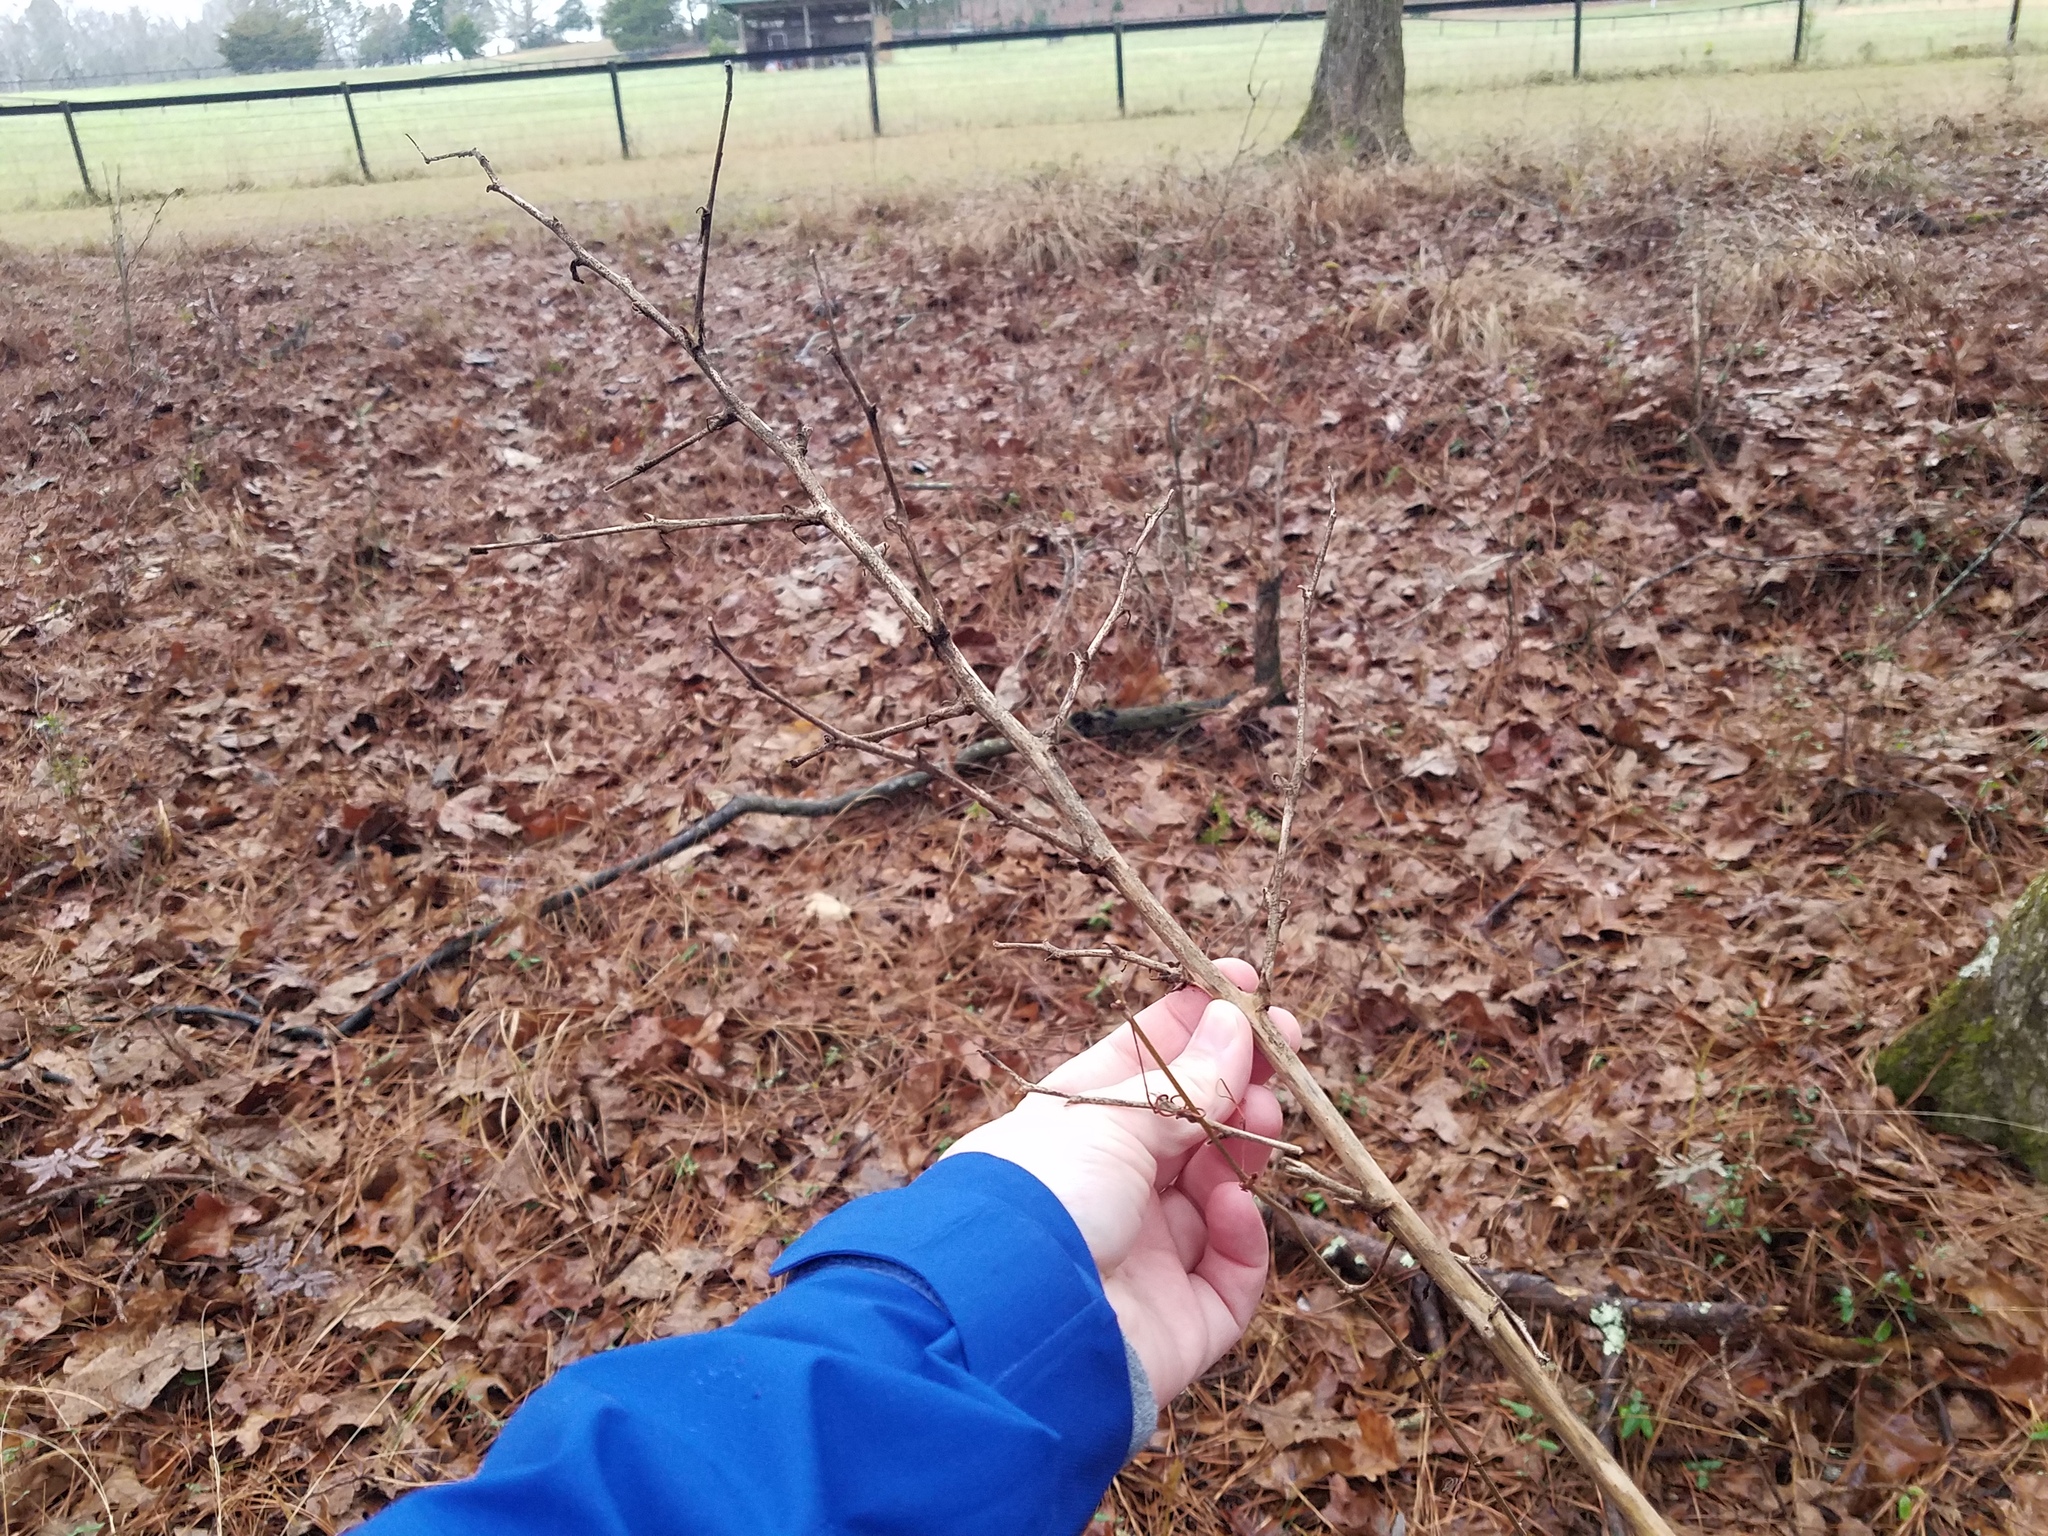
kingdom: Plantae
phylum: Tracheophyta
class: Liliopsida
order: Asparagales
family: Asparagaceae
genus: Yucca
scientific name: Yucca filamentosa
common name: Adam's-needle
